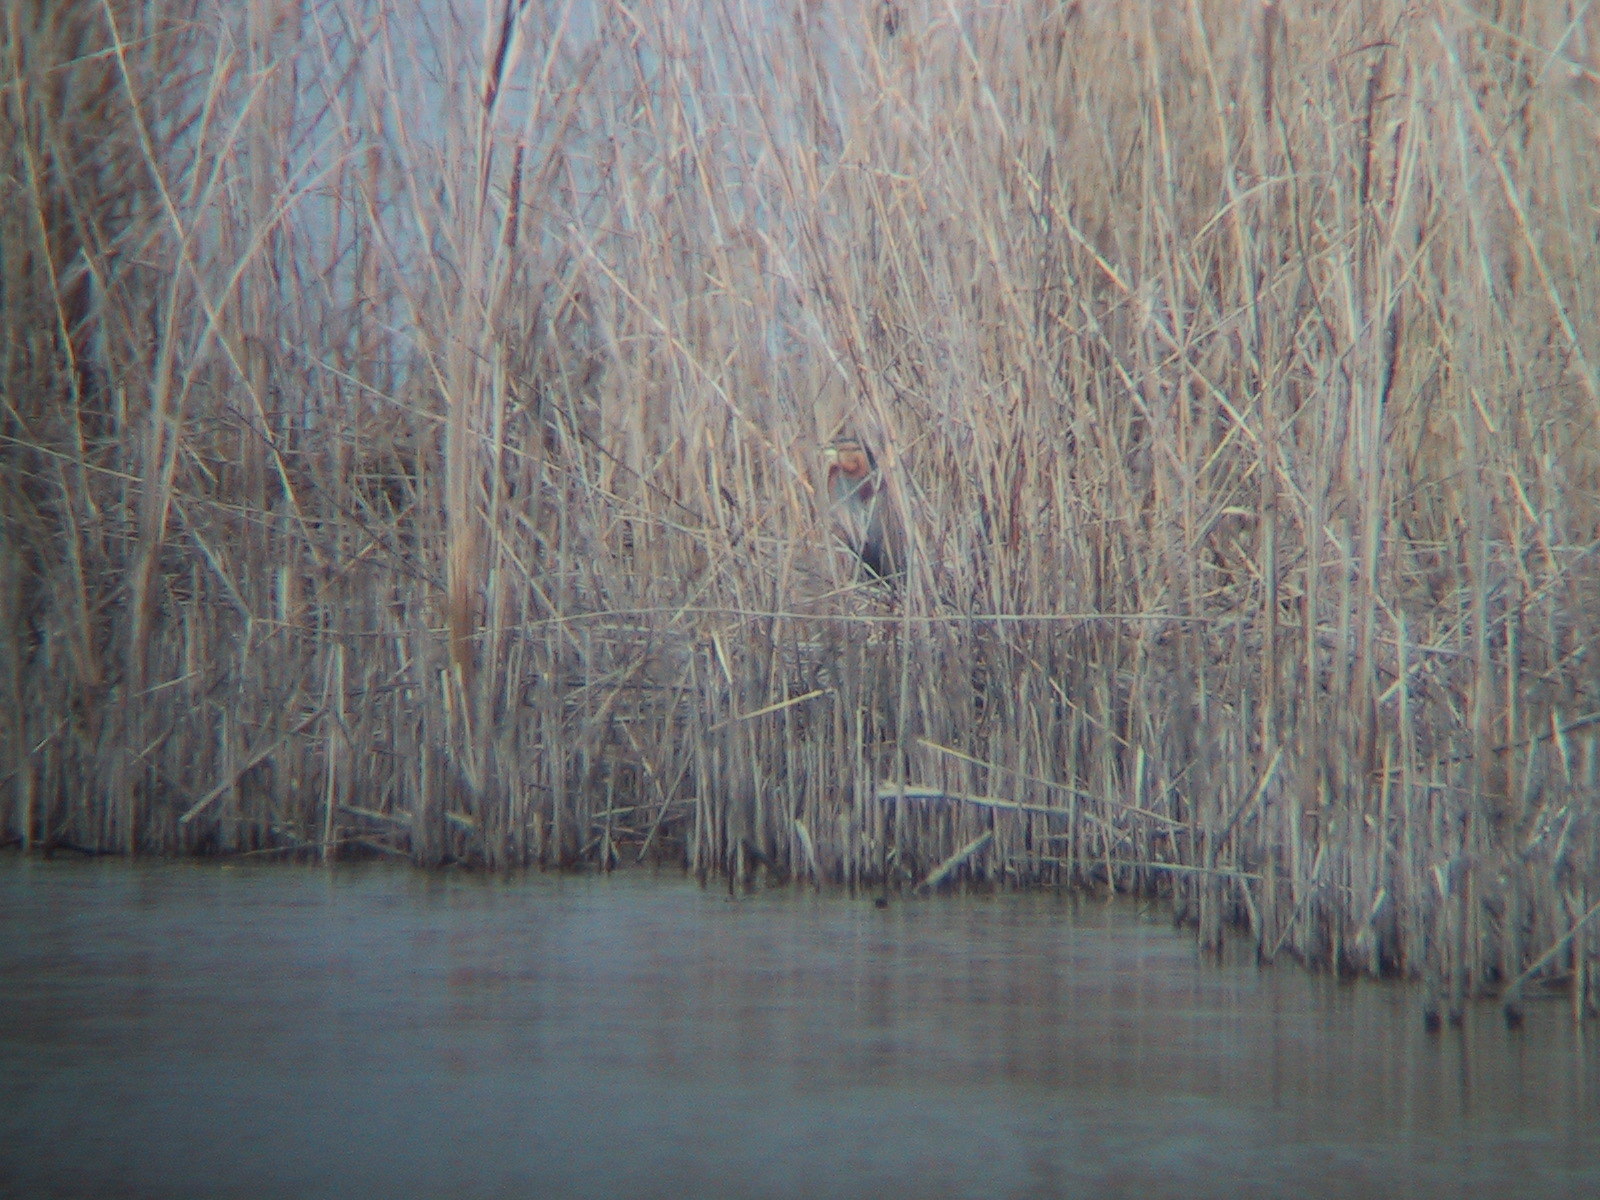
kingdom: Animalia
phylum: Chordata
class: Aves
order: Pelecaniformes
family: Ardeidae
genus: Ardea
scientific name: Ardea purpurea
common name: Purple heron
